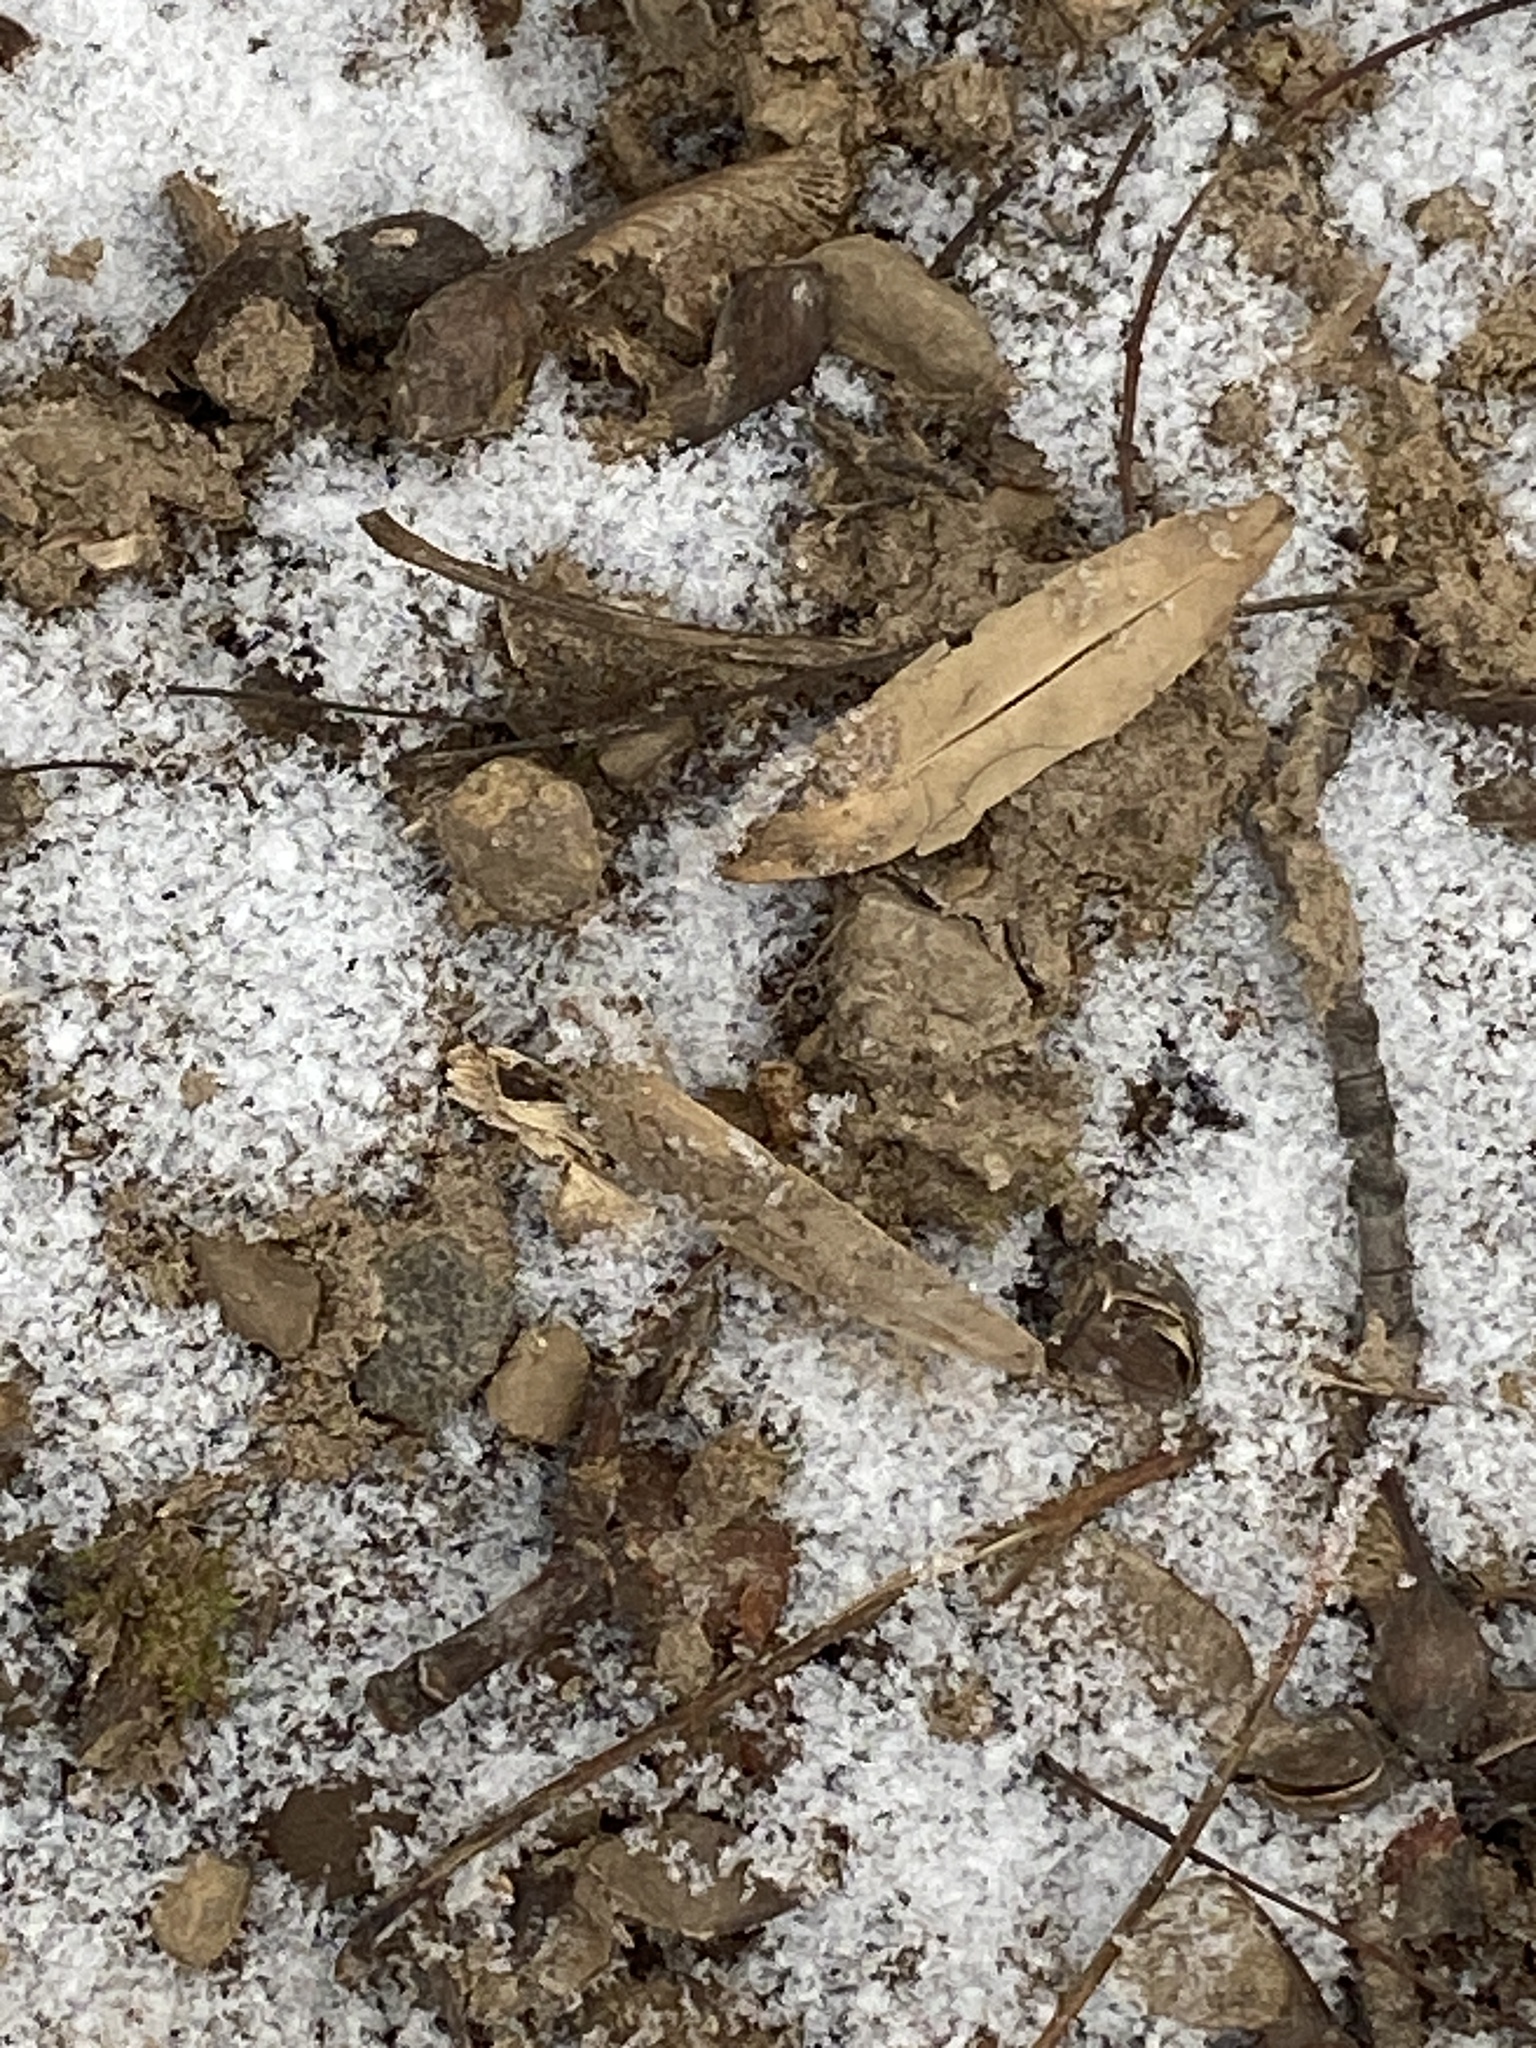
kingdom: Plantae
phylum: Tracheophyta
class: Magnoliopsida
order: Magnoliales
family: Magnoliaceae
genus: Liriodendron
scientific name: Liriodendron tulipifera
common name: Tulip tree
